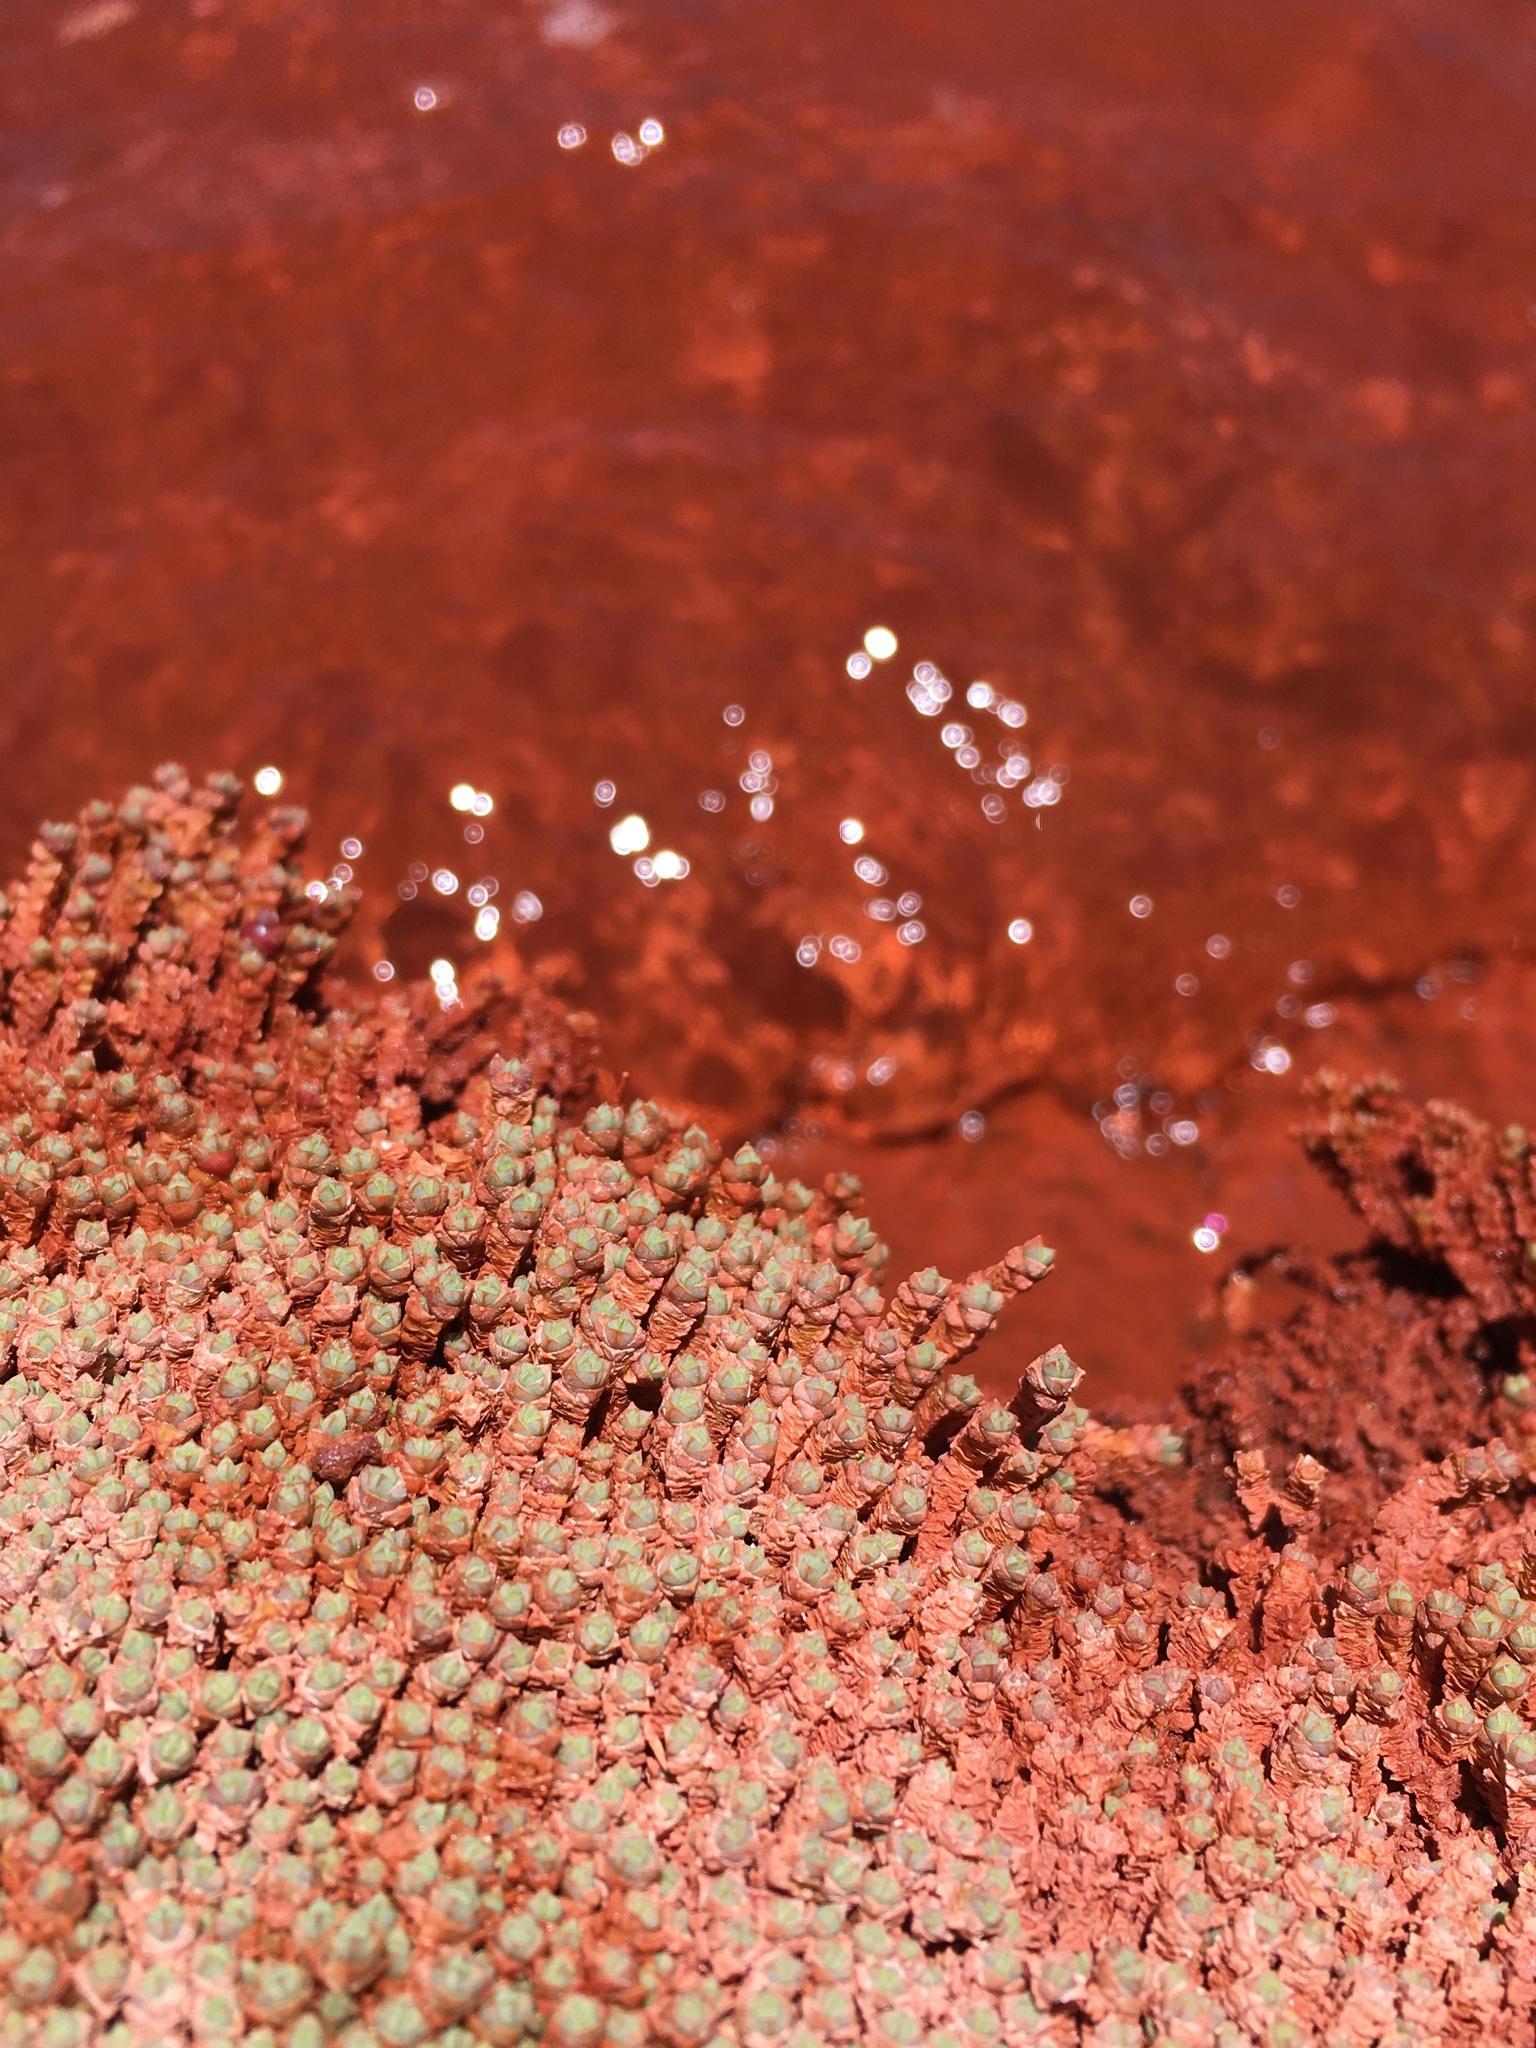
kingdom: Plantae
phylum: Tracheophyta
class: Magnoliopsida
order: Caryophyllales
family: Amaranthaceae
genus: Salicornia
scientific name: Salicornia pulvinata
